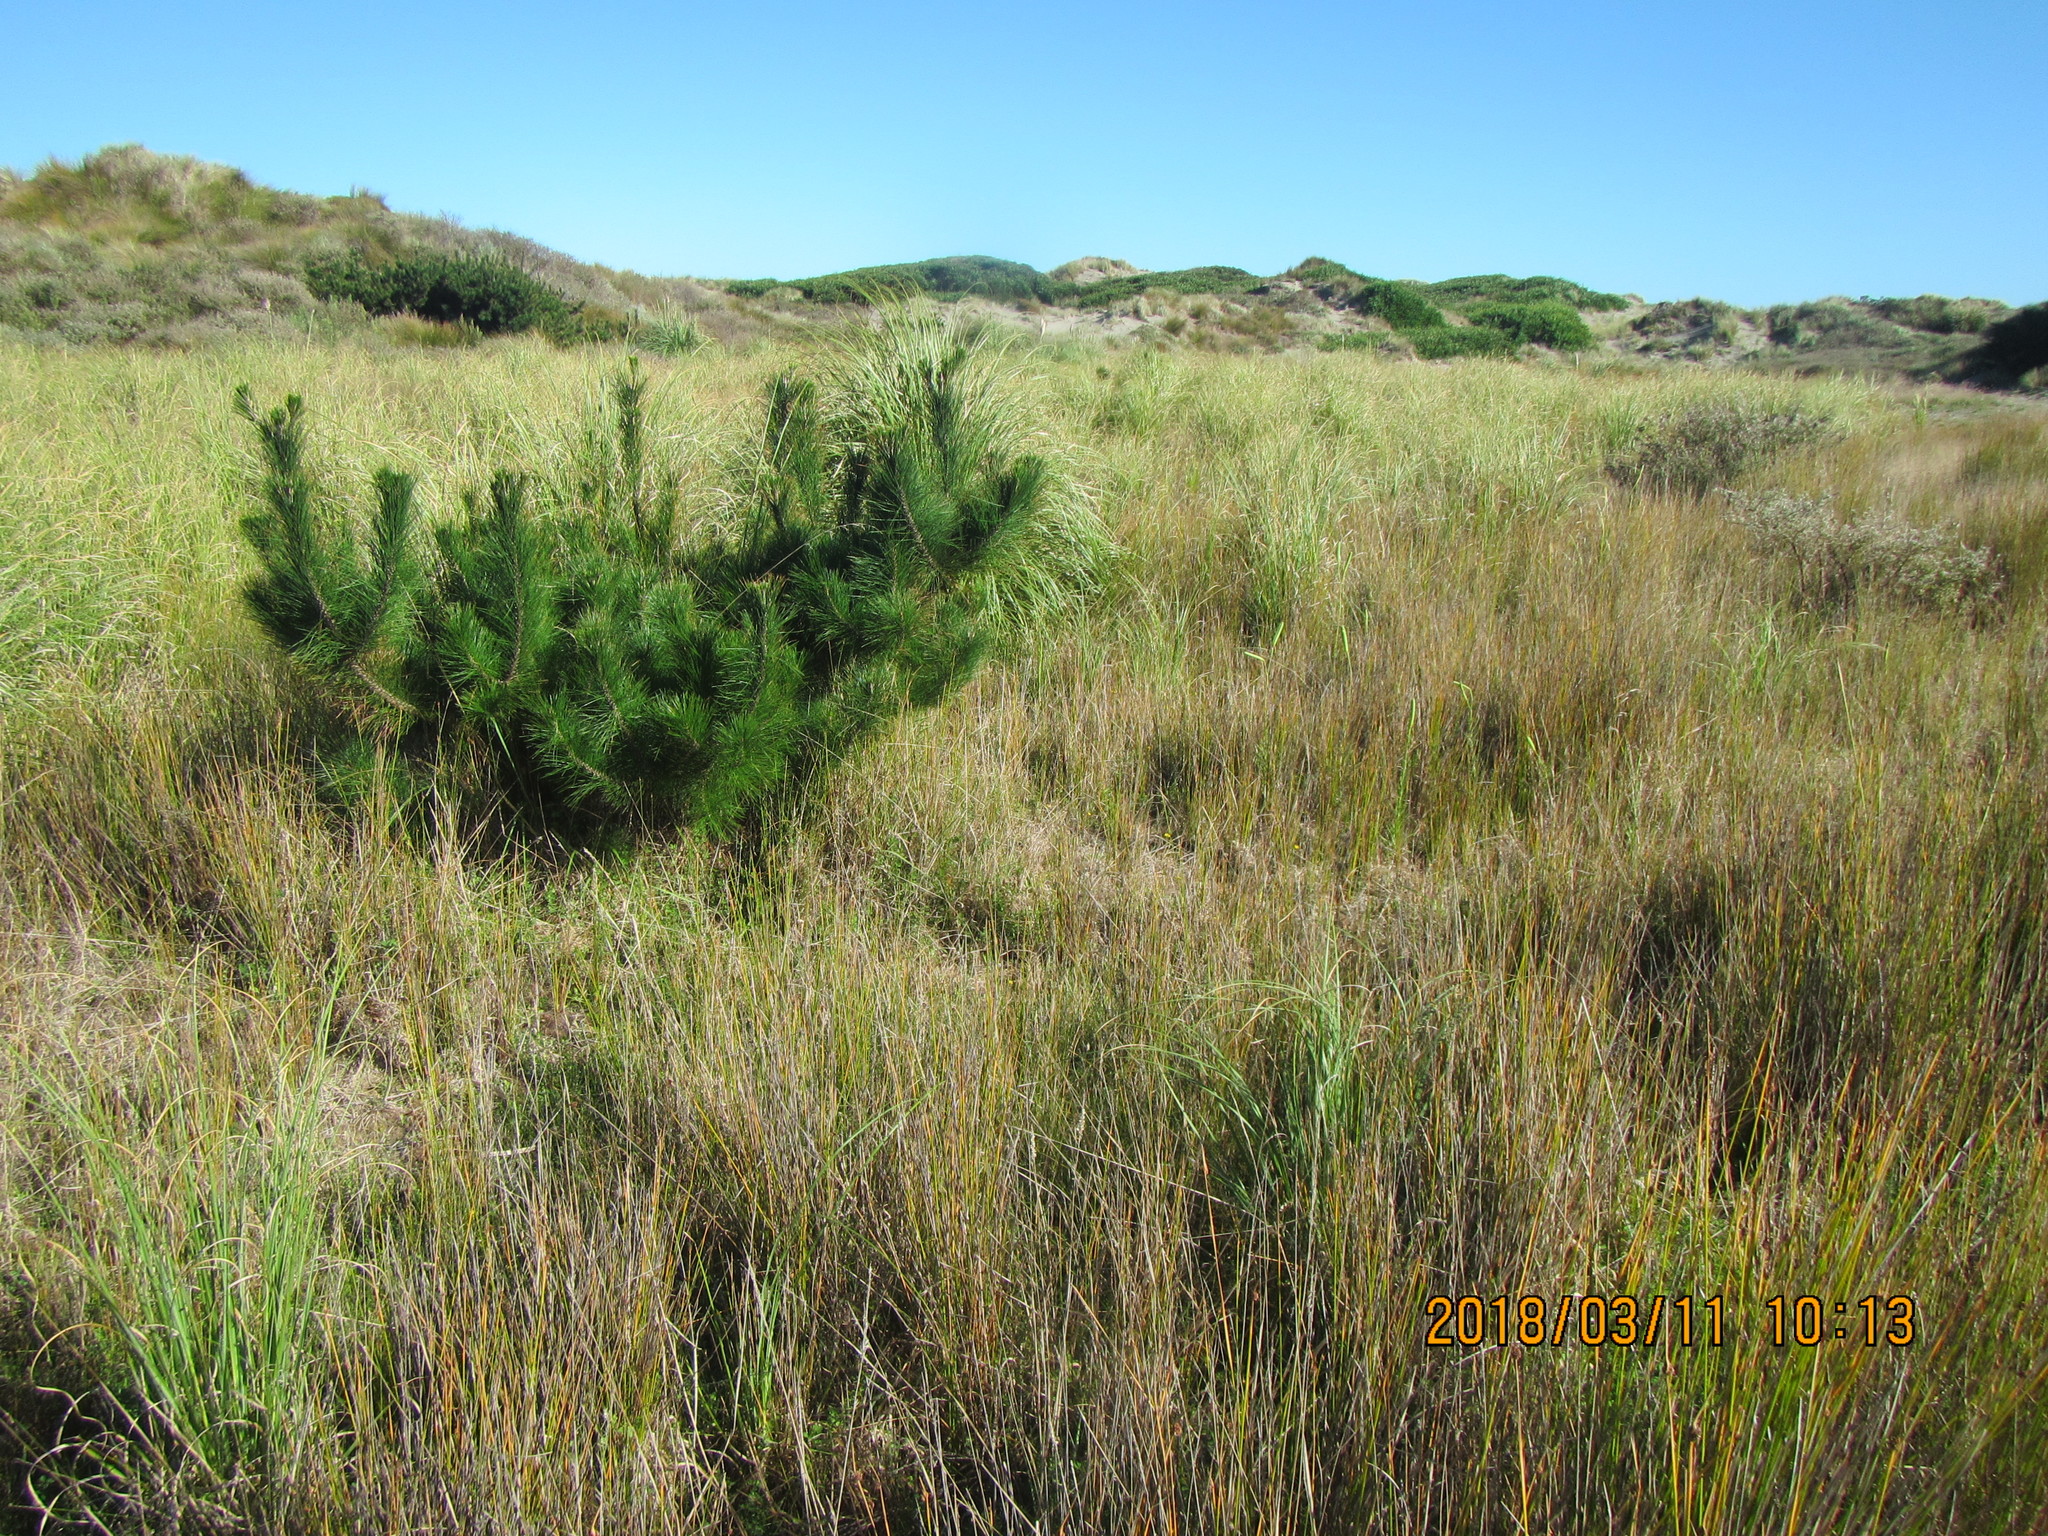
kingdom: Plantae
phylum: Tracheophyta
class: Pinopsida
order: Pinales
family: Pinaceae
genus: Pinus
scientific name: Pinus radiata
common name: Monterey pine
